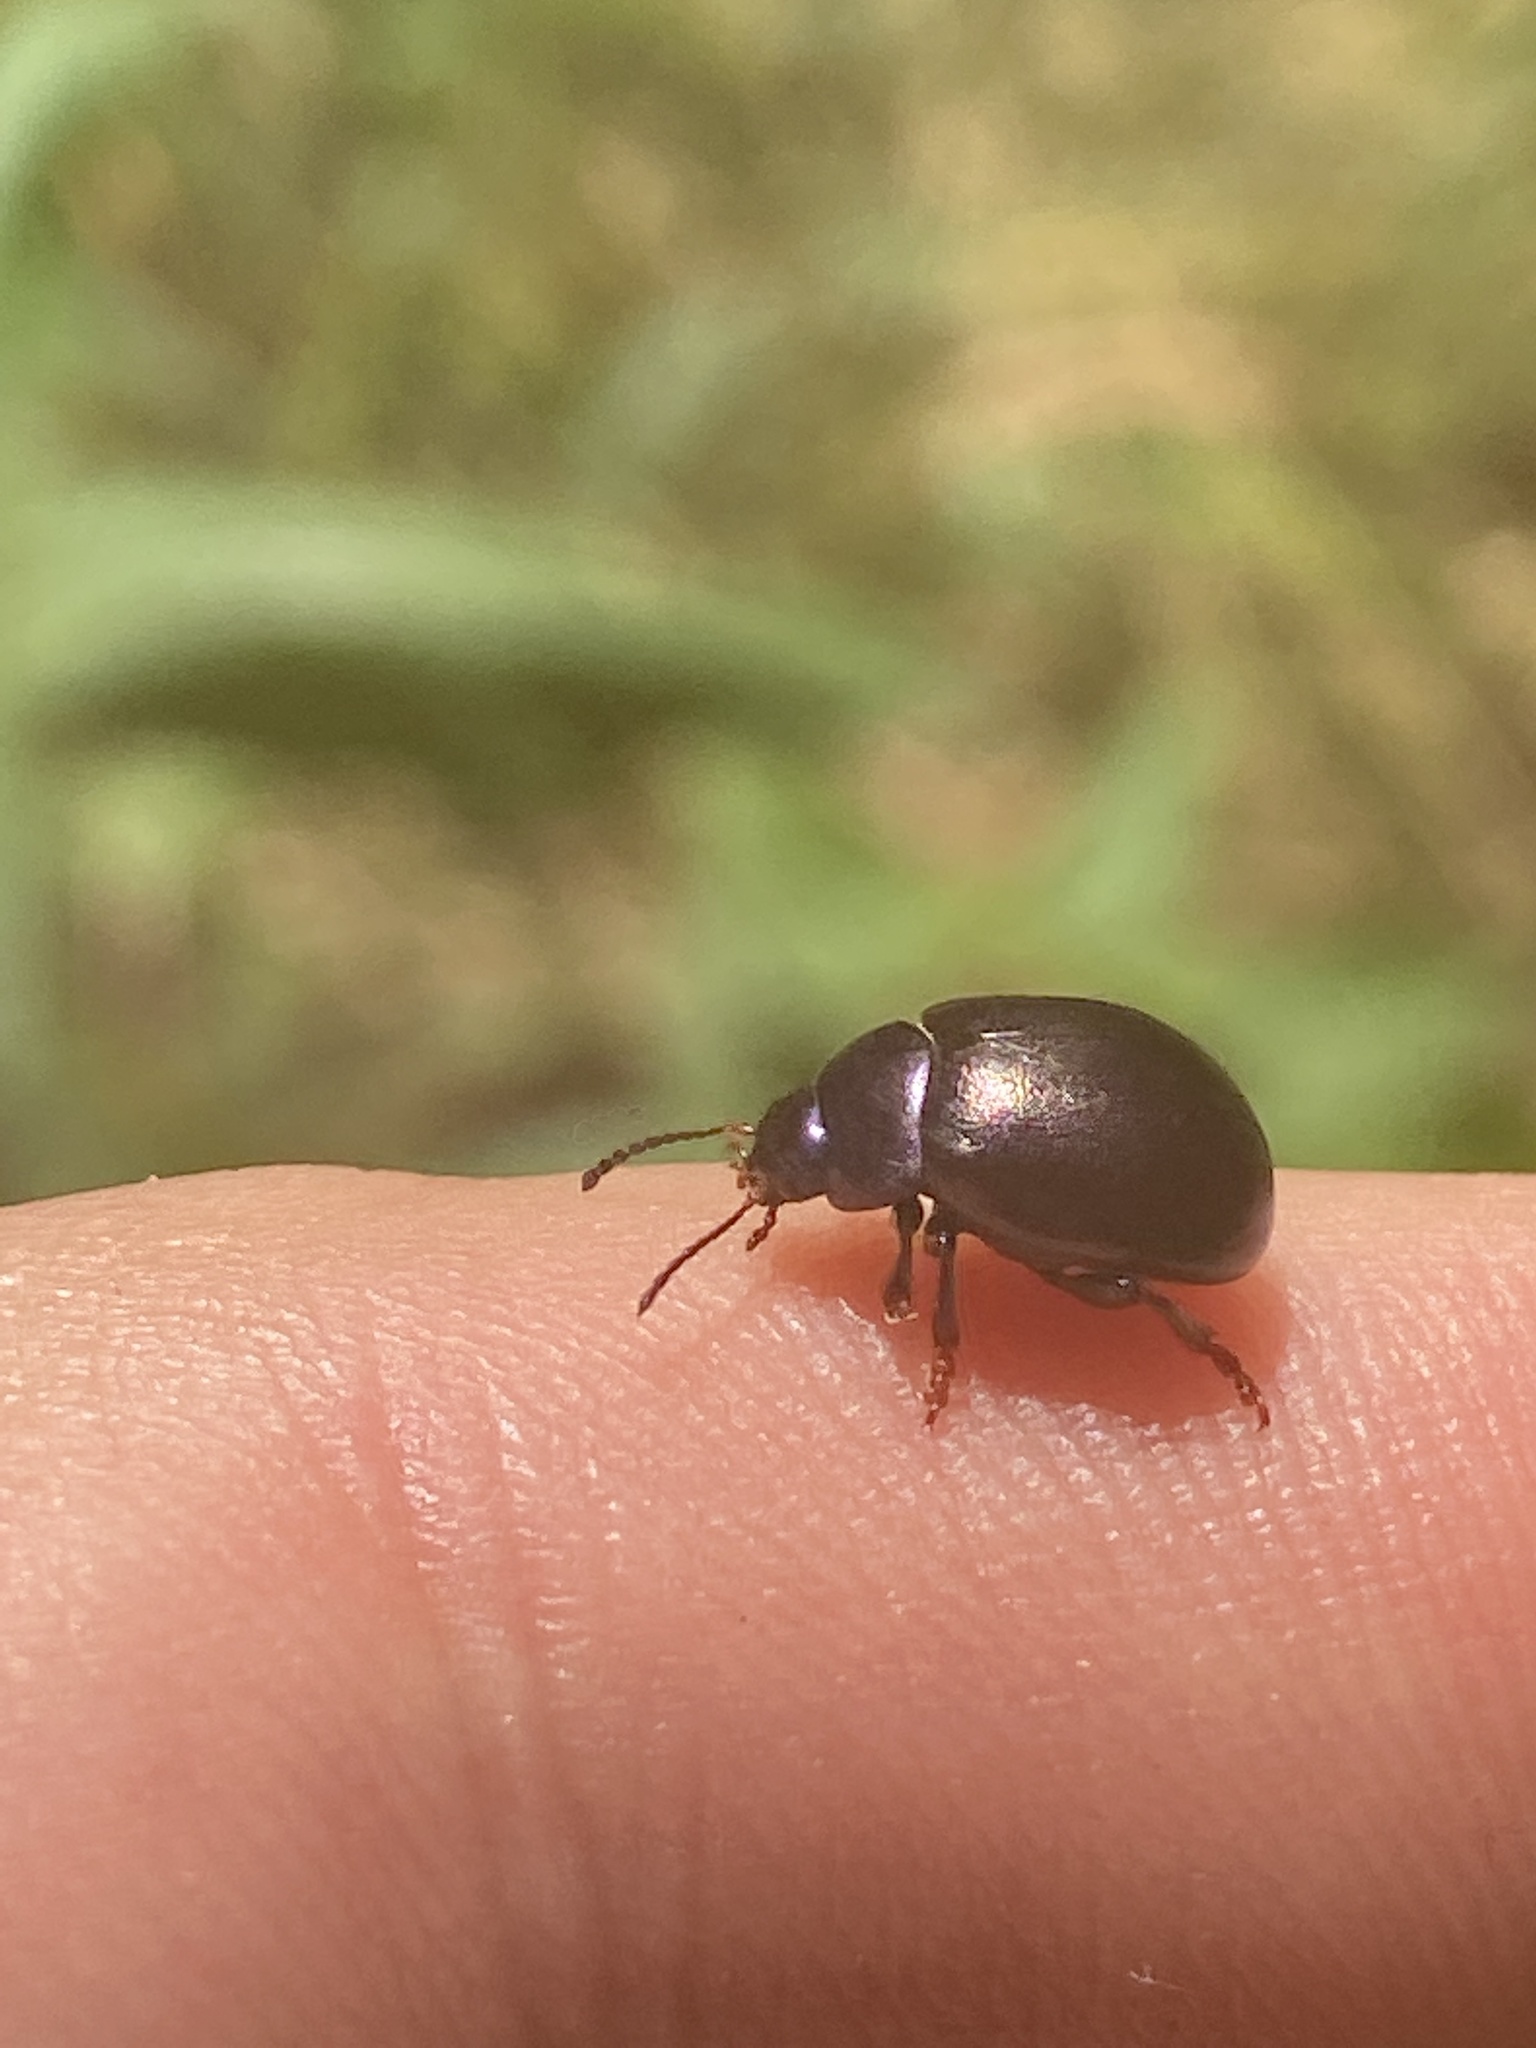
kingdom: Animalia
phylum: Arthropoda
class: Insecta
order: Coleoptera
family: Chrysomelidae
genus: Chrysolina
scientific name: Chrysolina sturmi
